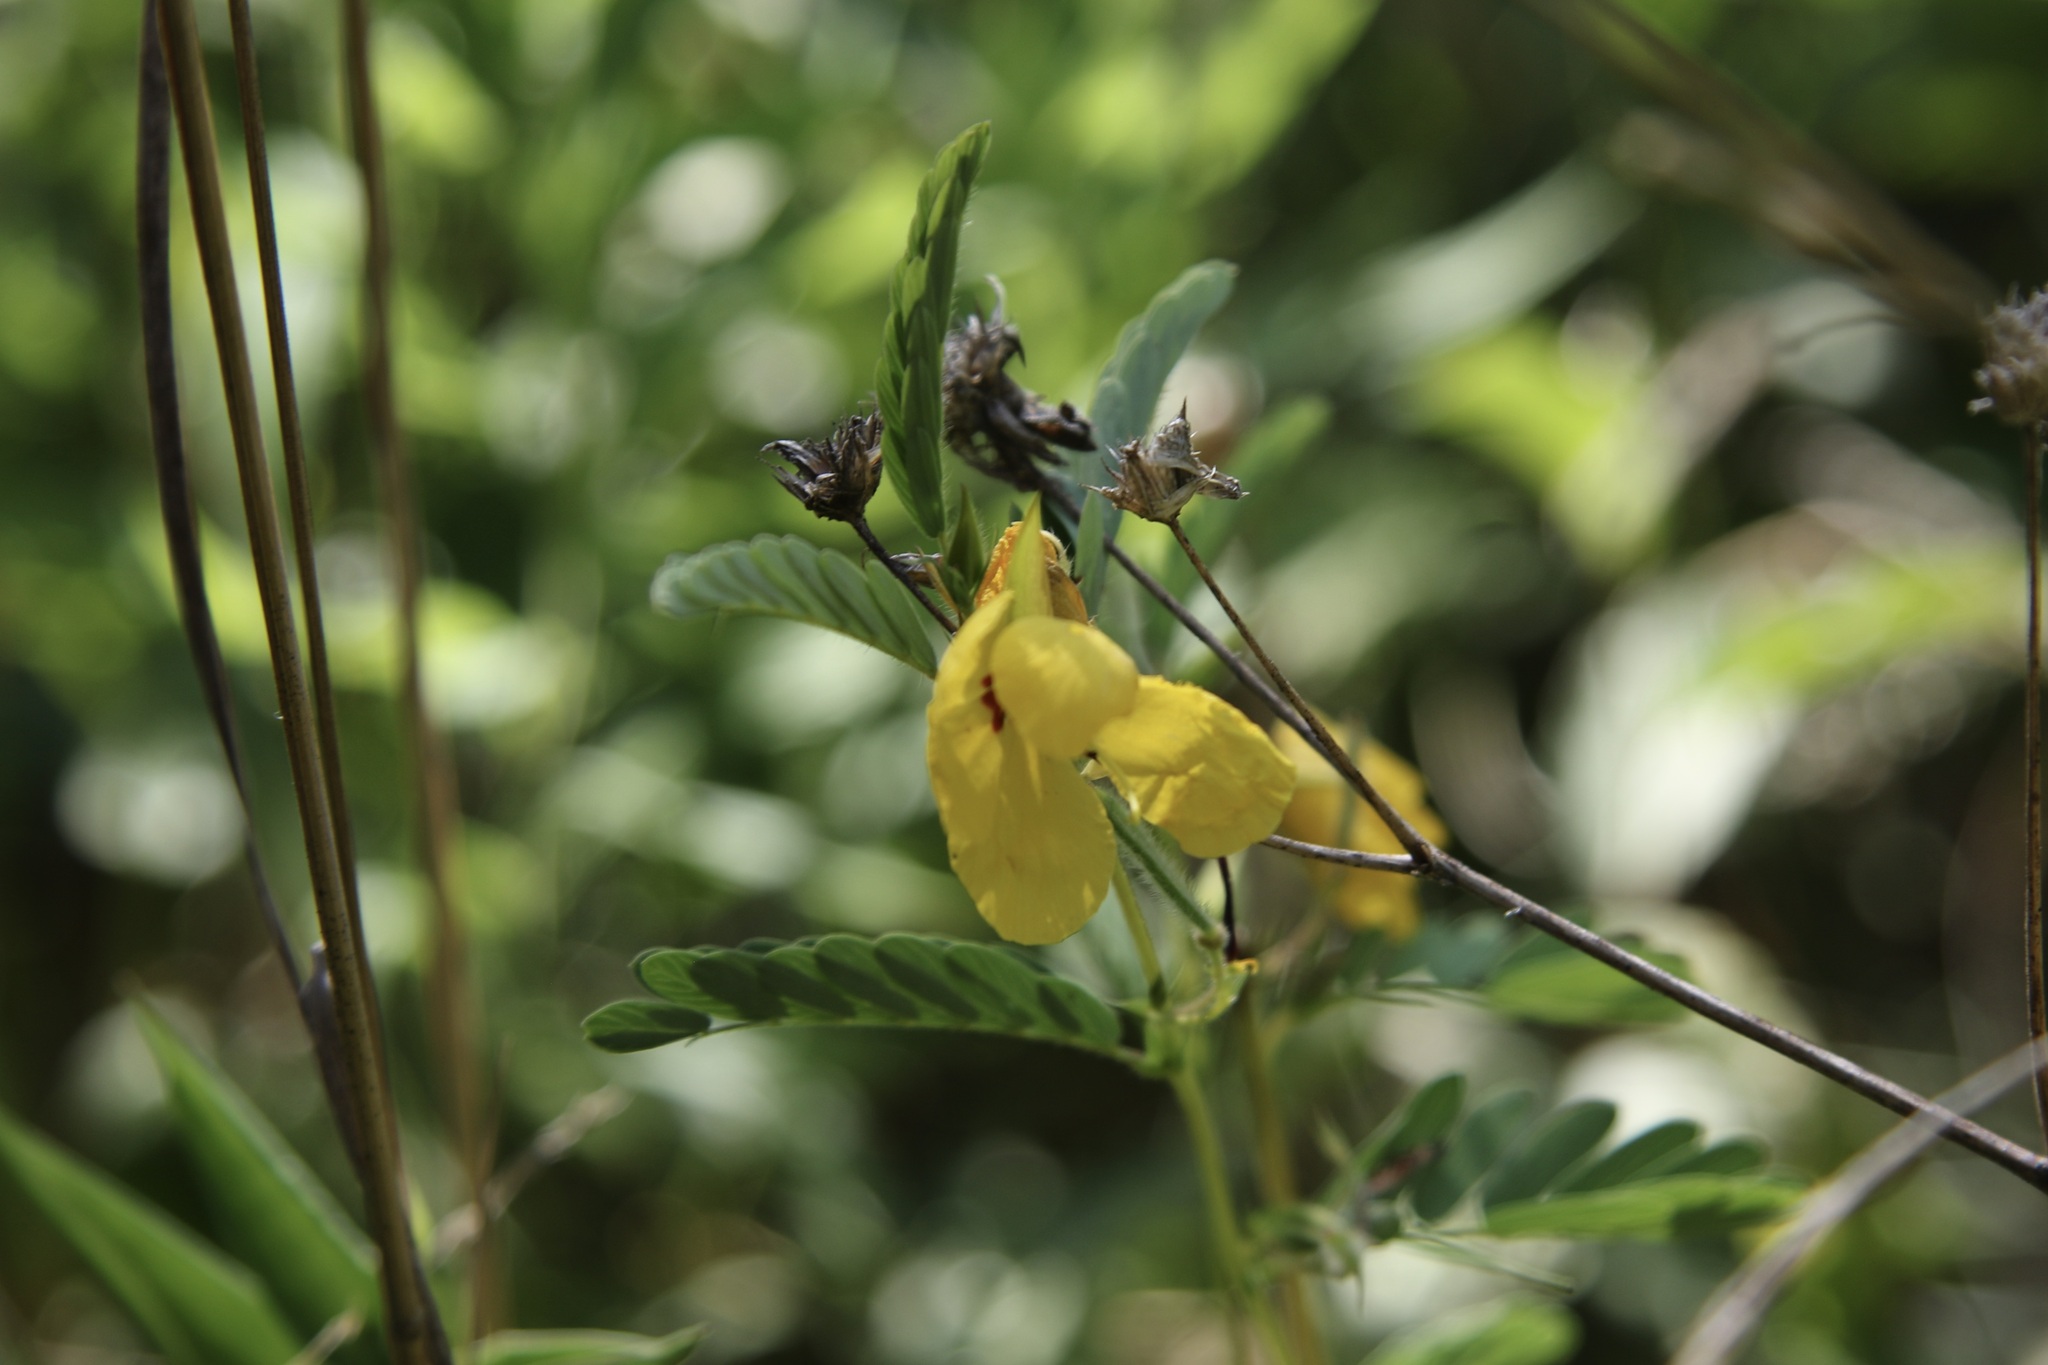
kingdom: Plantae
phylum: Tracheophyta
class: Magnoliopsida
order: Fabales
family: Fabaceae
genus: Chamaecrista
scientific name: Chamaecrista fasciculata
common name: Golden cassia
